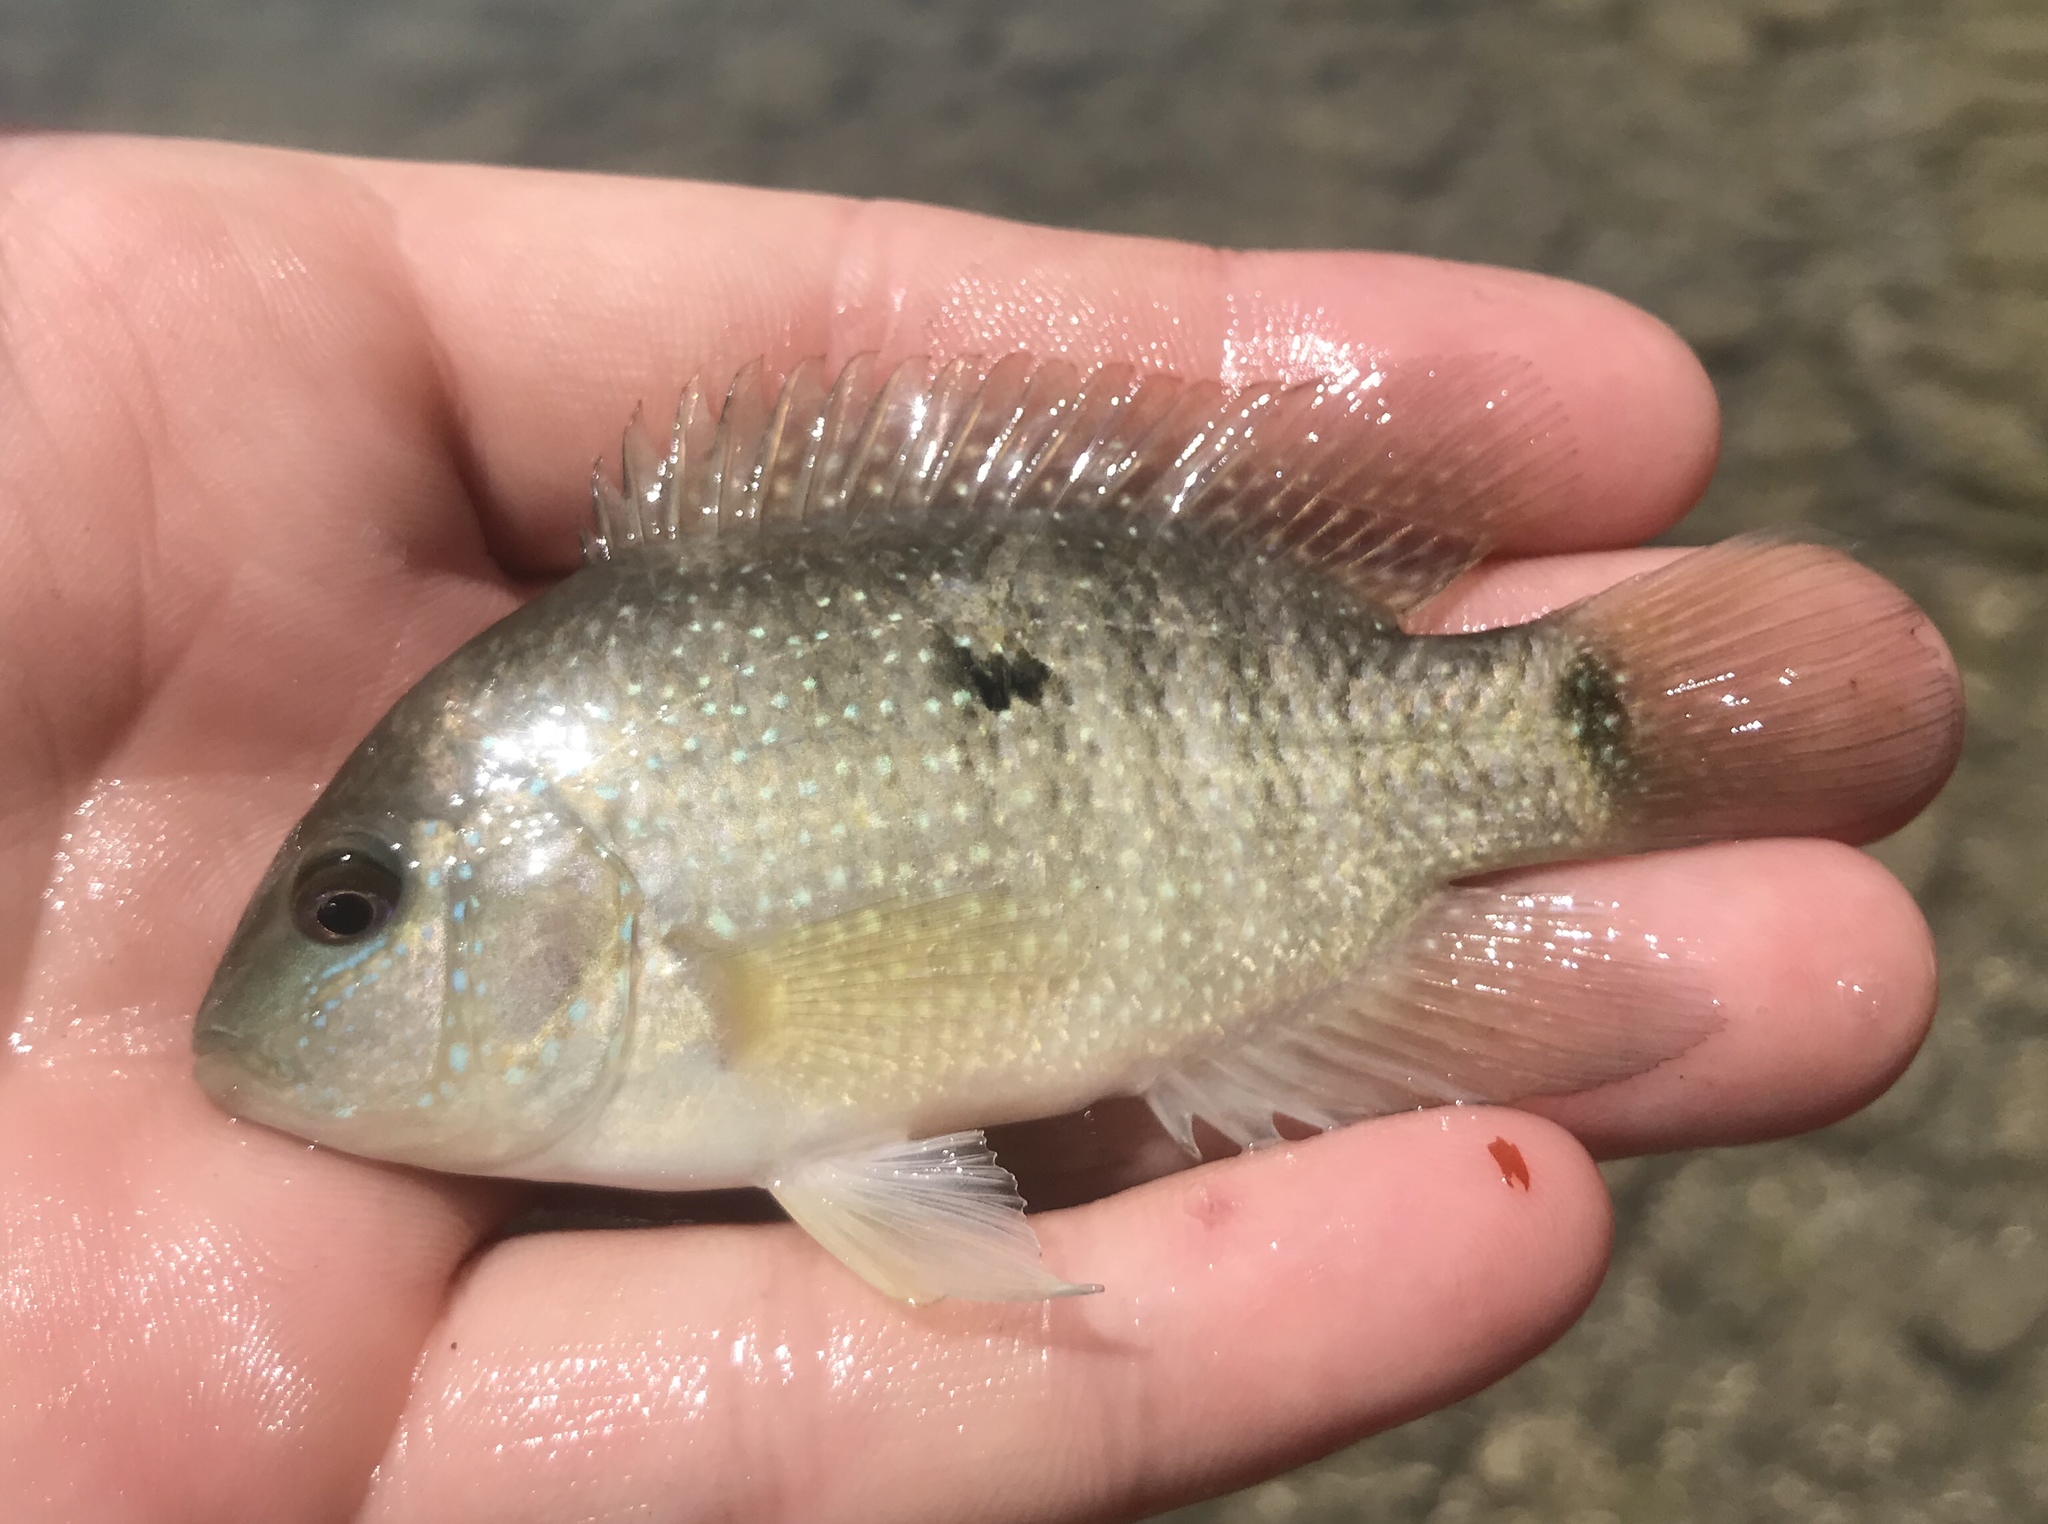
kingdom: Animalia
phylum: Chordata
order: Perciformes
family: Cichlidae
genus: Herichthys
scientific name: Herichthys cyanoguttatus
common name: Rio grande cichlid
